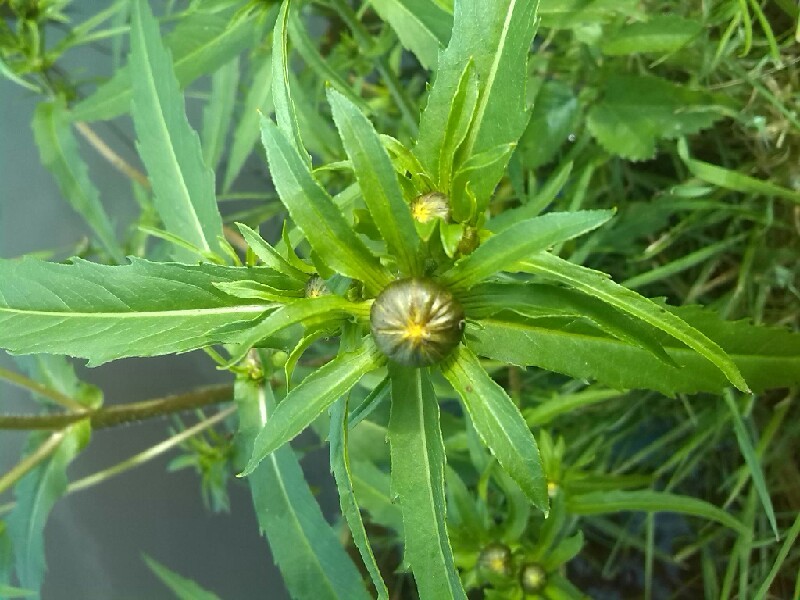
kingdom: Plantae
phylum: Tracheophyta
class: Magnoliopsida
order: Asterales
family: Asteraceae
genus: Bidens
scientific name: Bidens cernua
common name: Nodding bur-marigold
